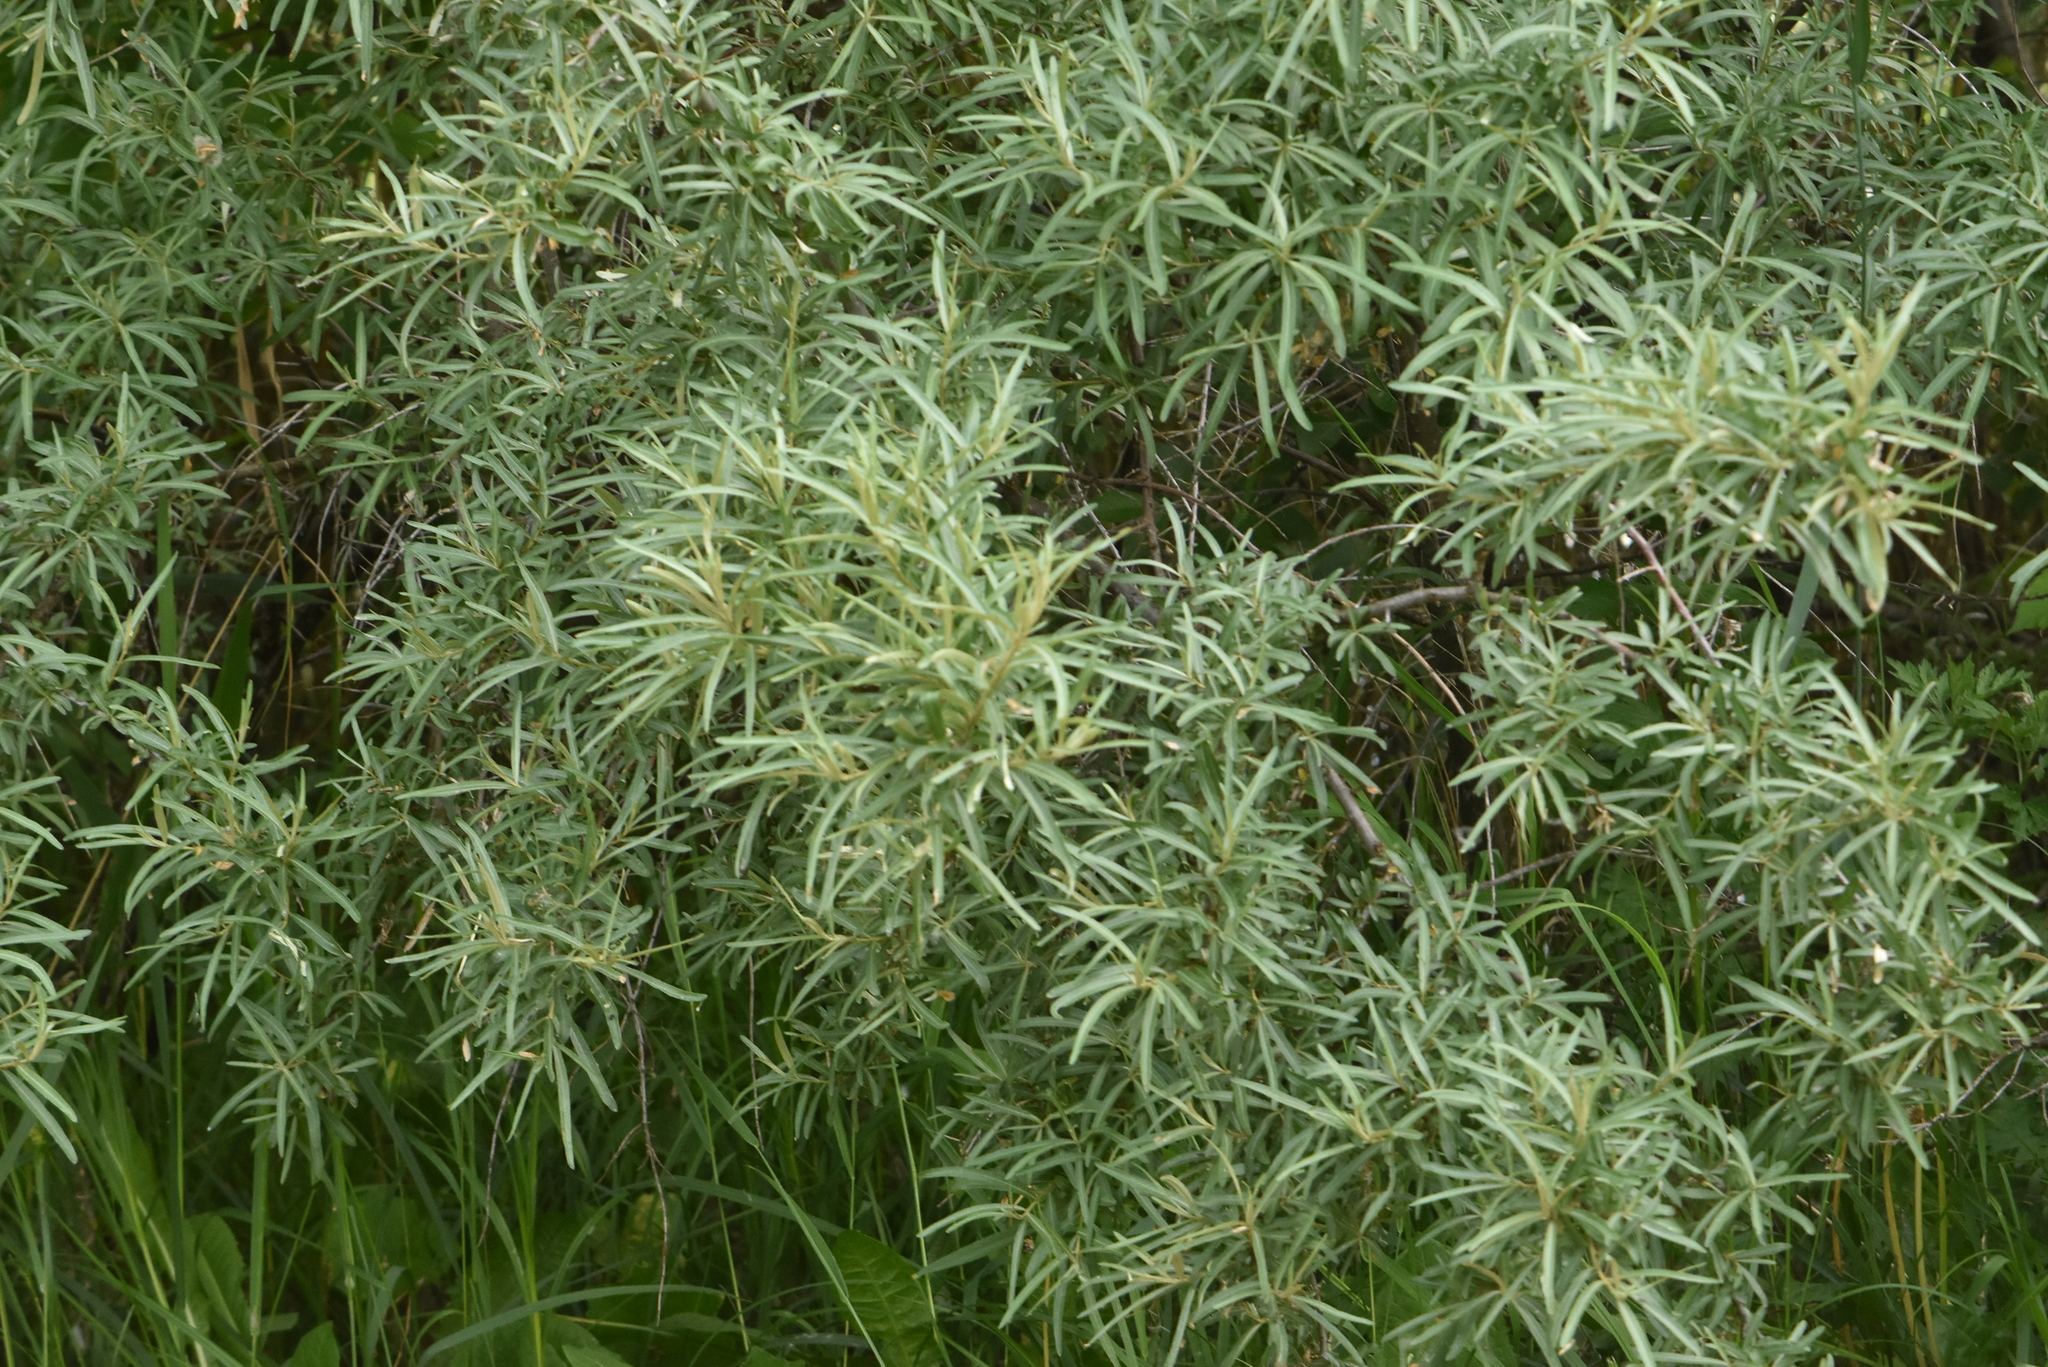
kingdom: Plantae
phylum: Tracheophyta
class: Magnoliopsida
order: Rosales
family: Elaeagnaceae
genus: Hippophae
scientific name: Hippophae rhamnoides
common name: Sea-buckthorn
